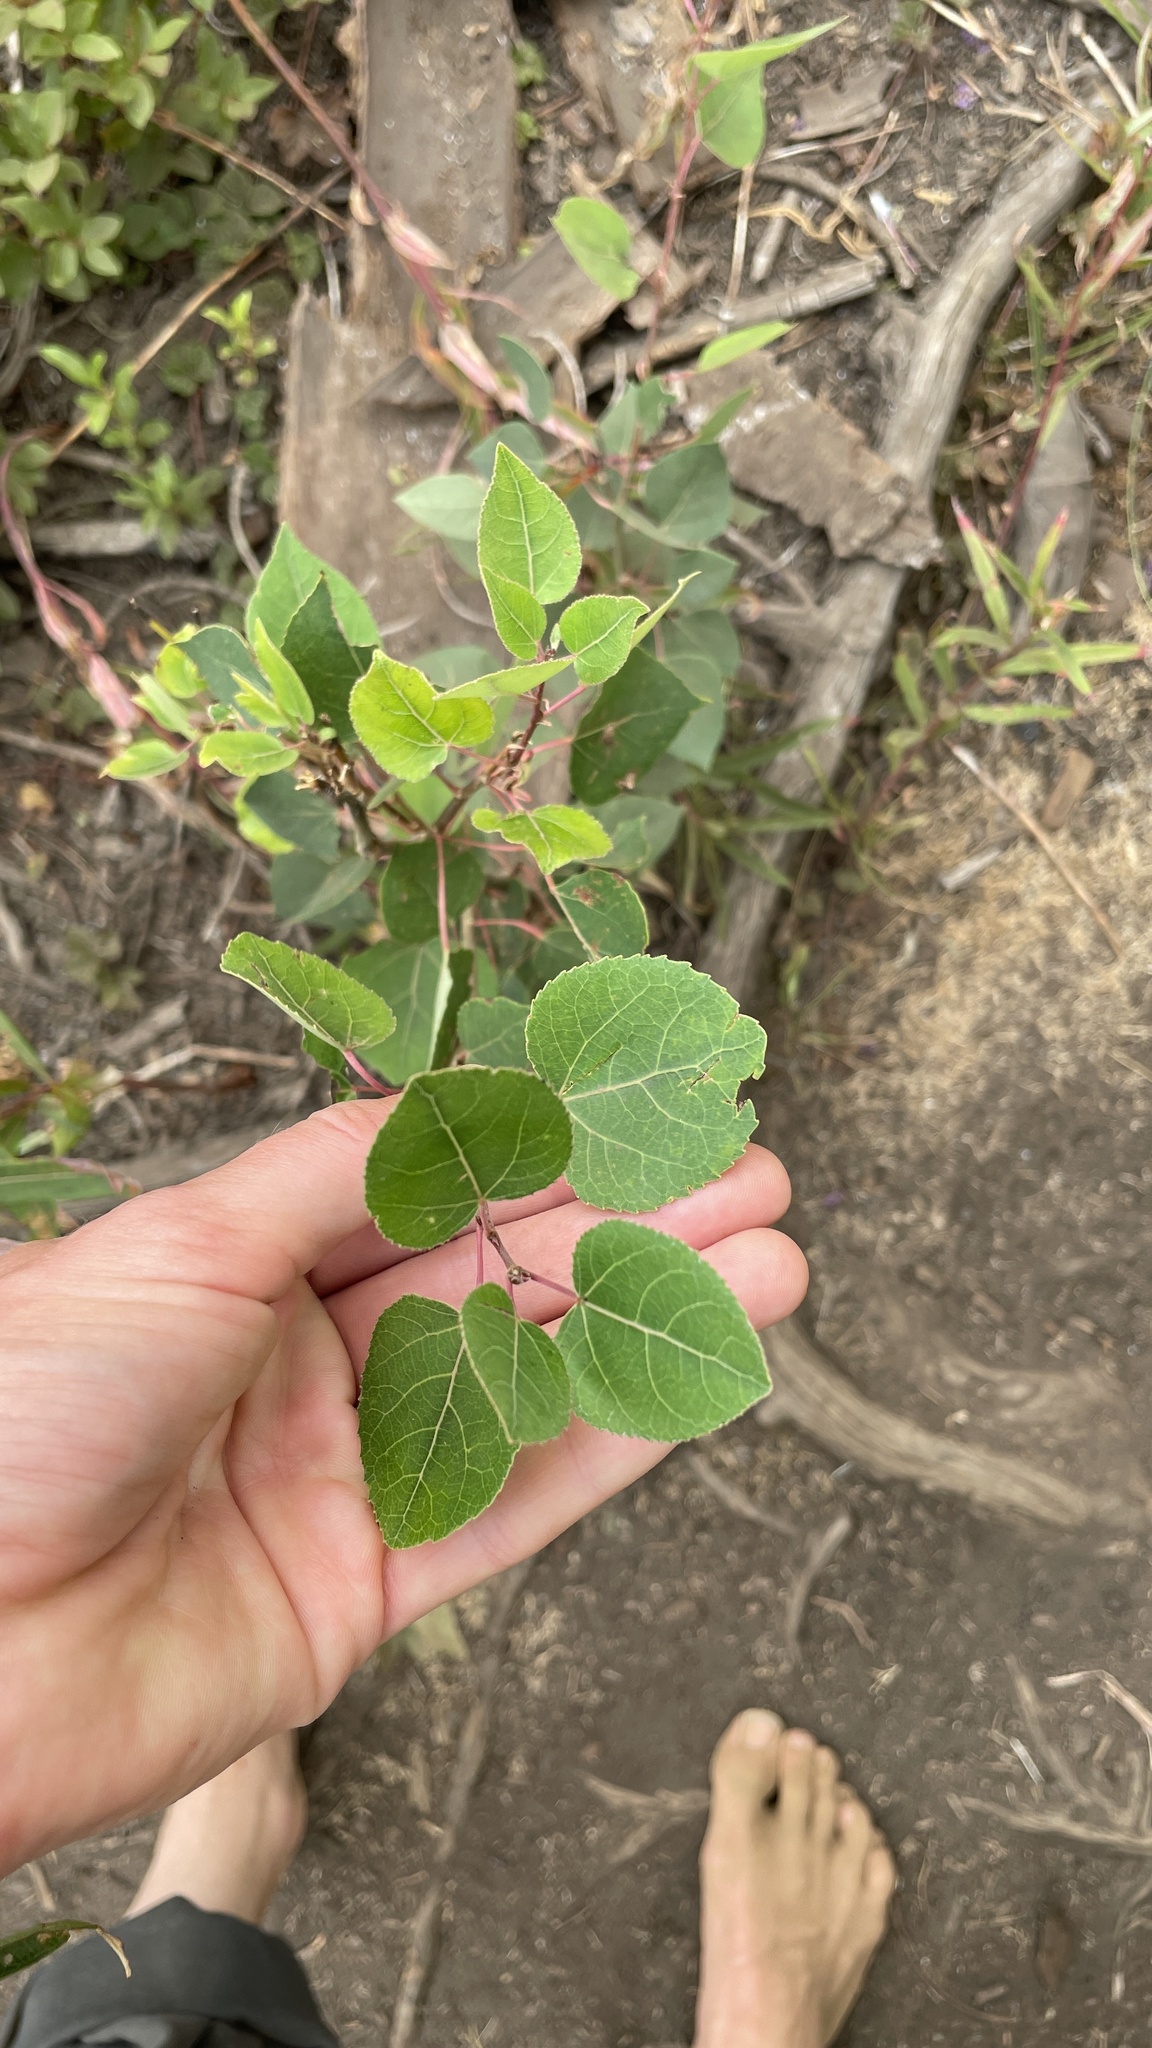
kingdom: Plantae
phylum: Tracheophyta
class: Magnoliopsida
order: Malpighiales
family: Salicaceae
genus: Populus
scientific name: Populus tremuloides
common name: Quaking aspen
